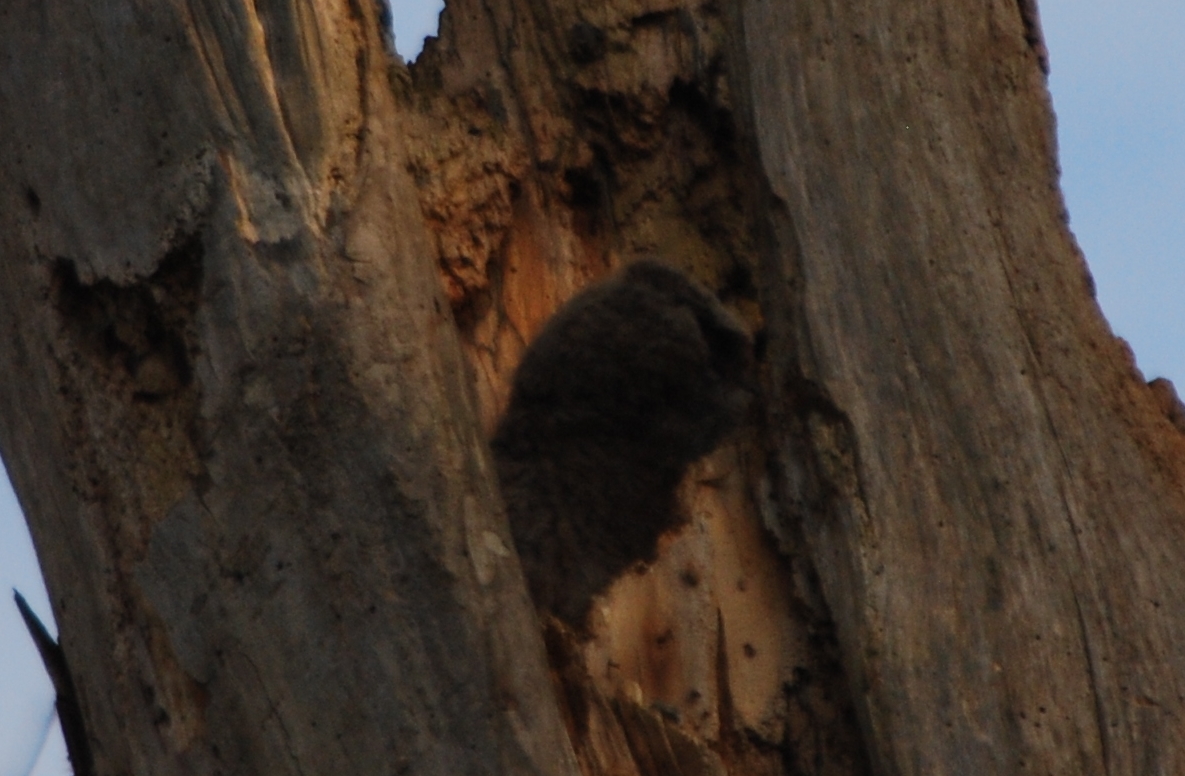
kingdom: Animalia
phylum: Chordata
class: Aves
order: Strigiformes
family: Strigidae
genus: Bubo
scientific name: Bubo virginianus
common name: Great horned owl
